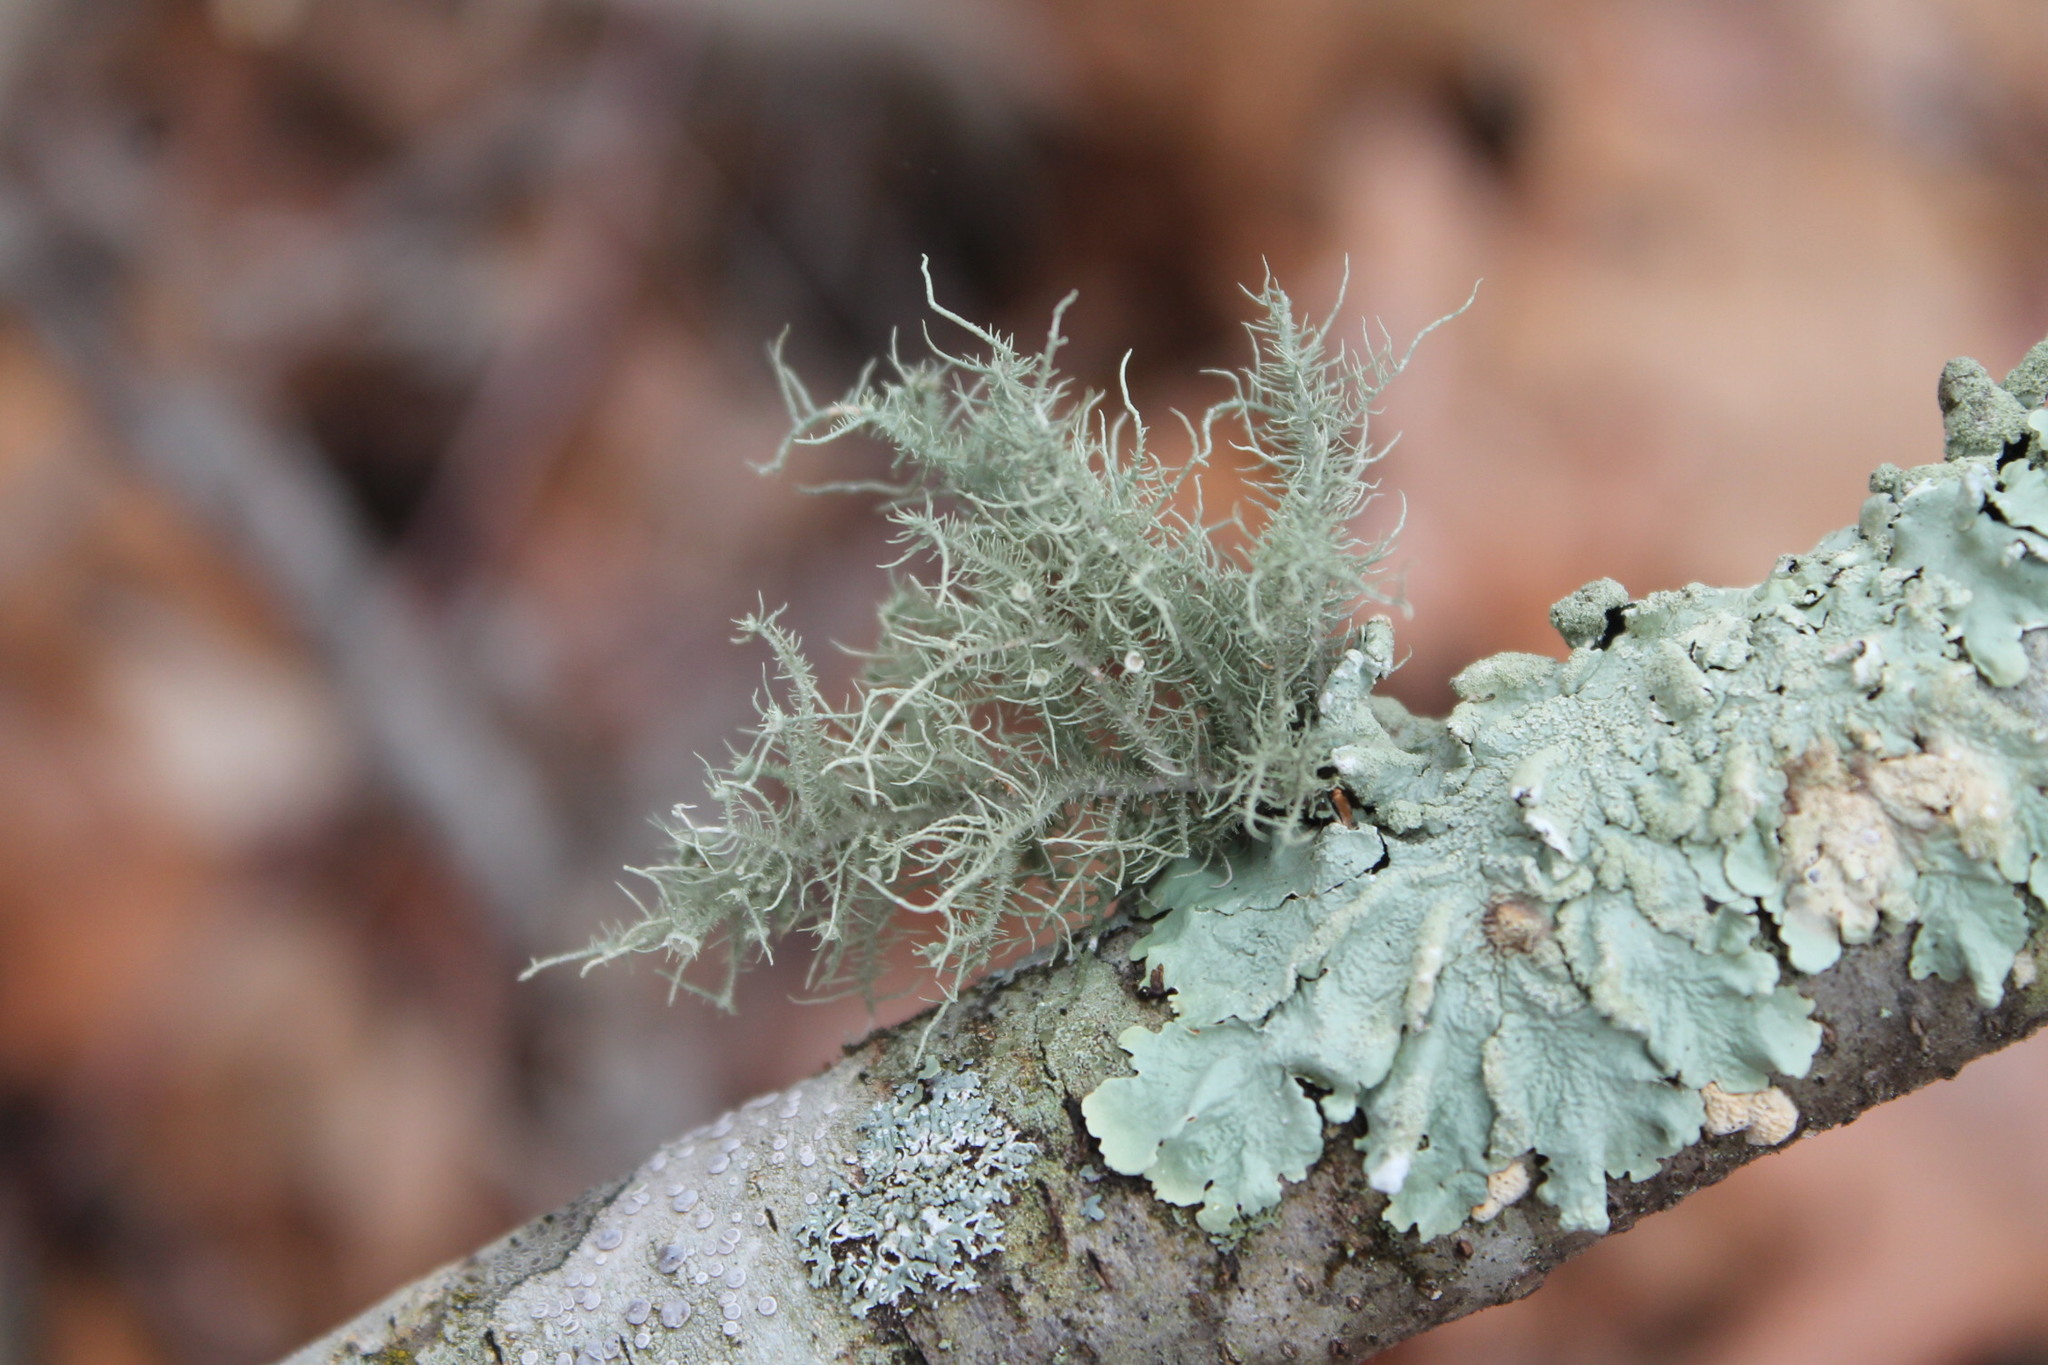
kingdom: Fungi
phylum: Ascomycota
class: Lecanoromycetes
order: Lecanorales
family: Parmeliaceae
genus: Usnea
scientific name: Usnea strigosa
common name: Bushy beard lichen
